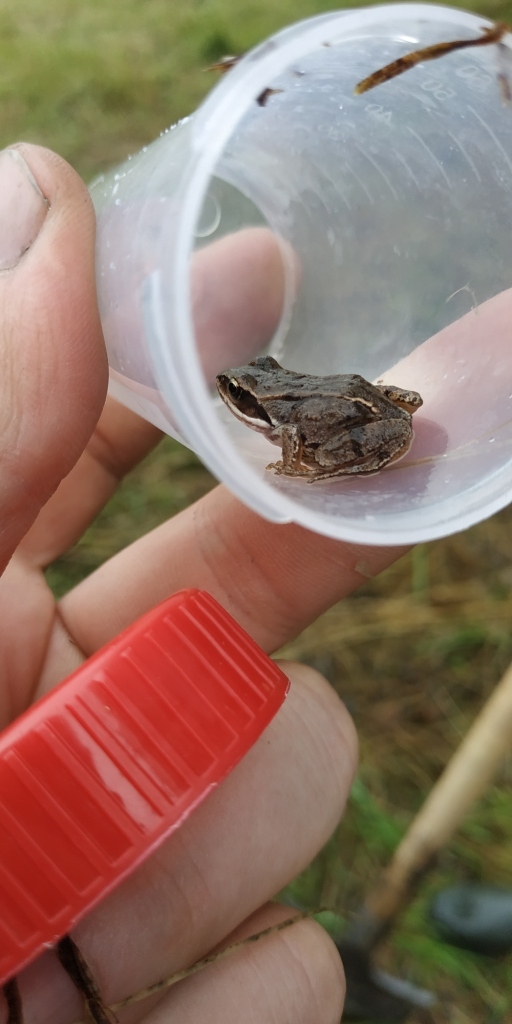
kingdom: Animalia
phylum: Chordata
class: Amphibia
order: Anura
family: Ranidae
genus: Rana
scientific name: Rana arvalis
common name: Moor frog
